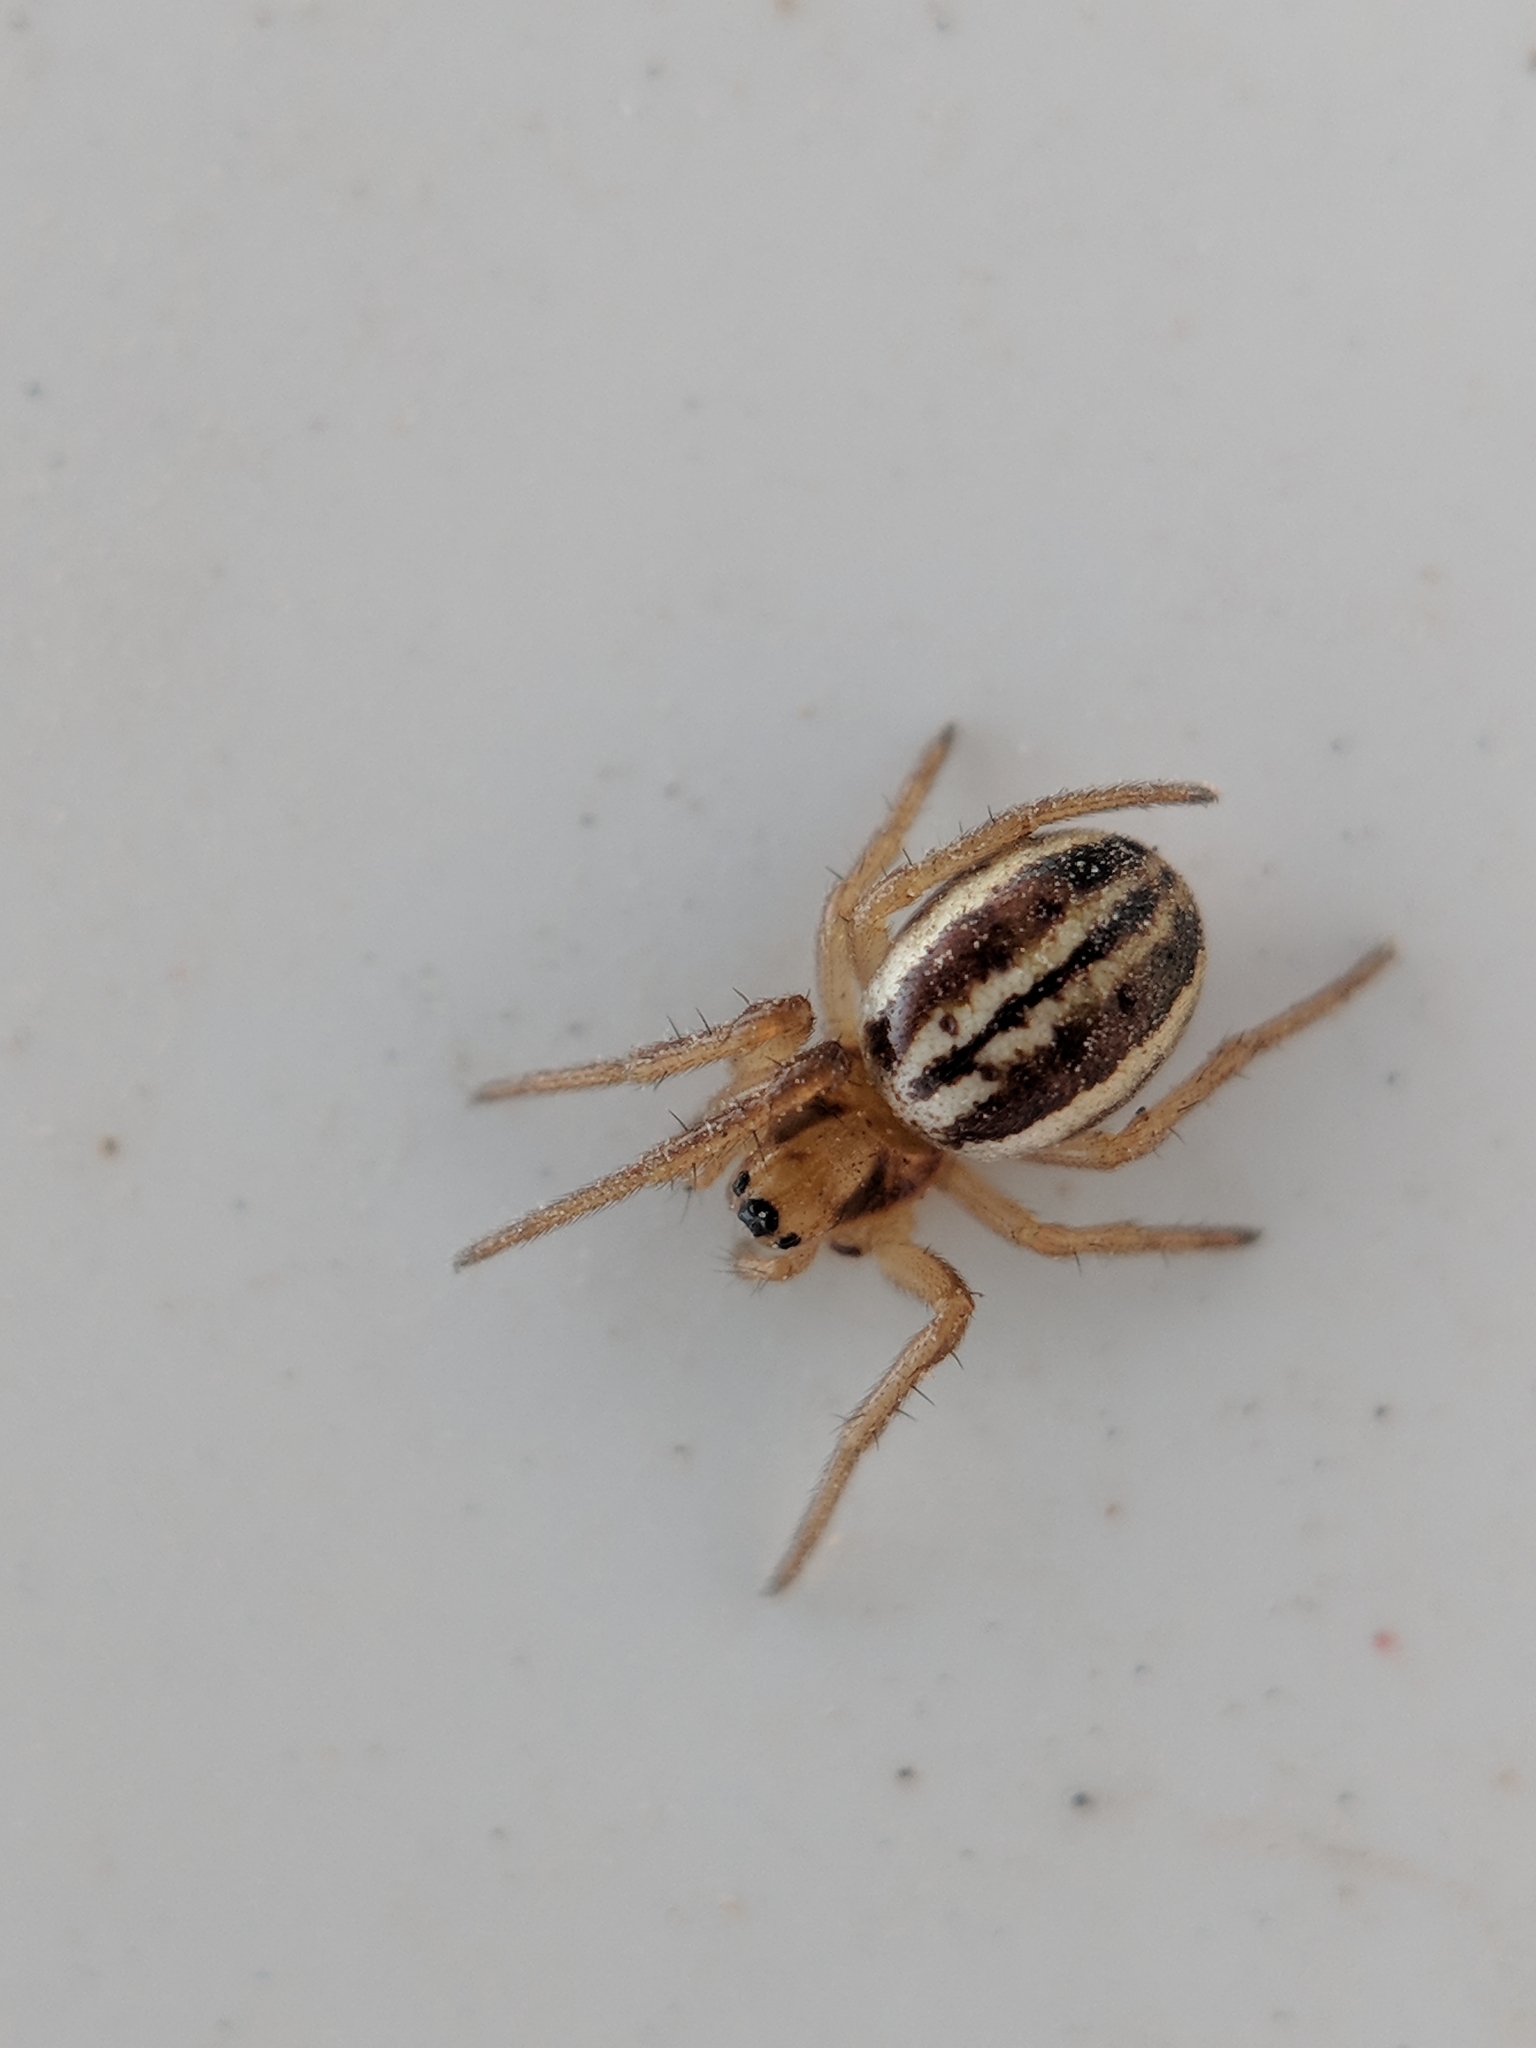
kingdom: Animalia
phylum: Arthropoda
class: Arachnida
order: Araneae
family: Araneidae
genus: Araneus
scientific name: Araneus pratensis
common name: Openfield orbweaver
